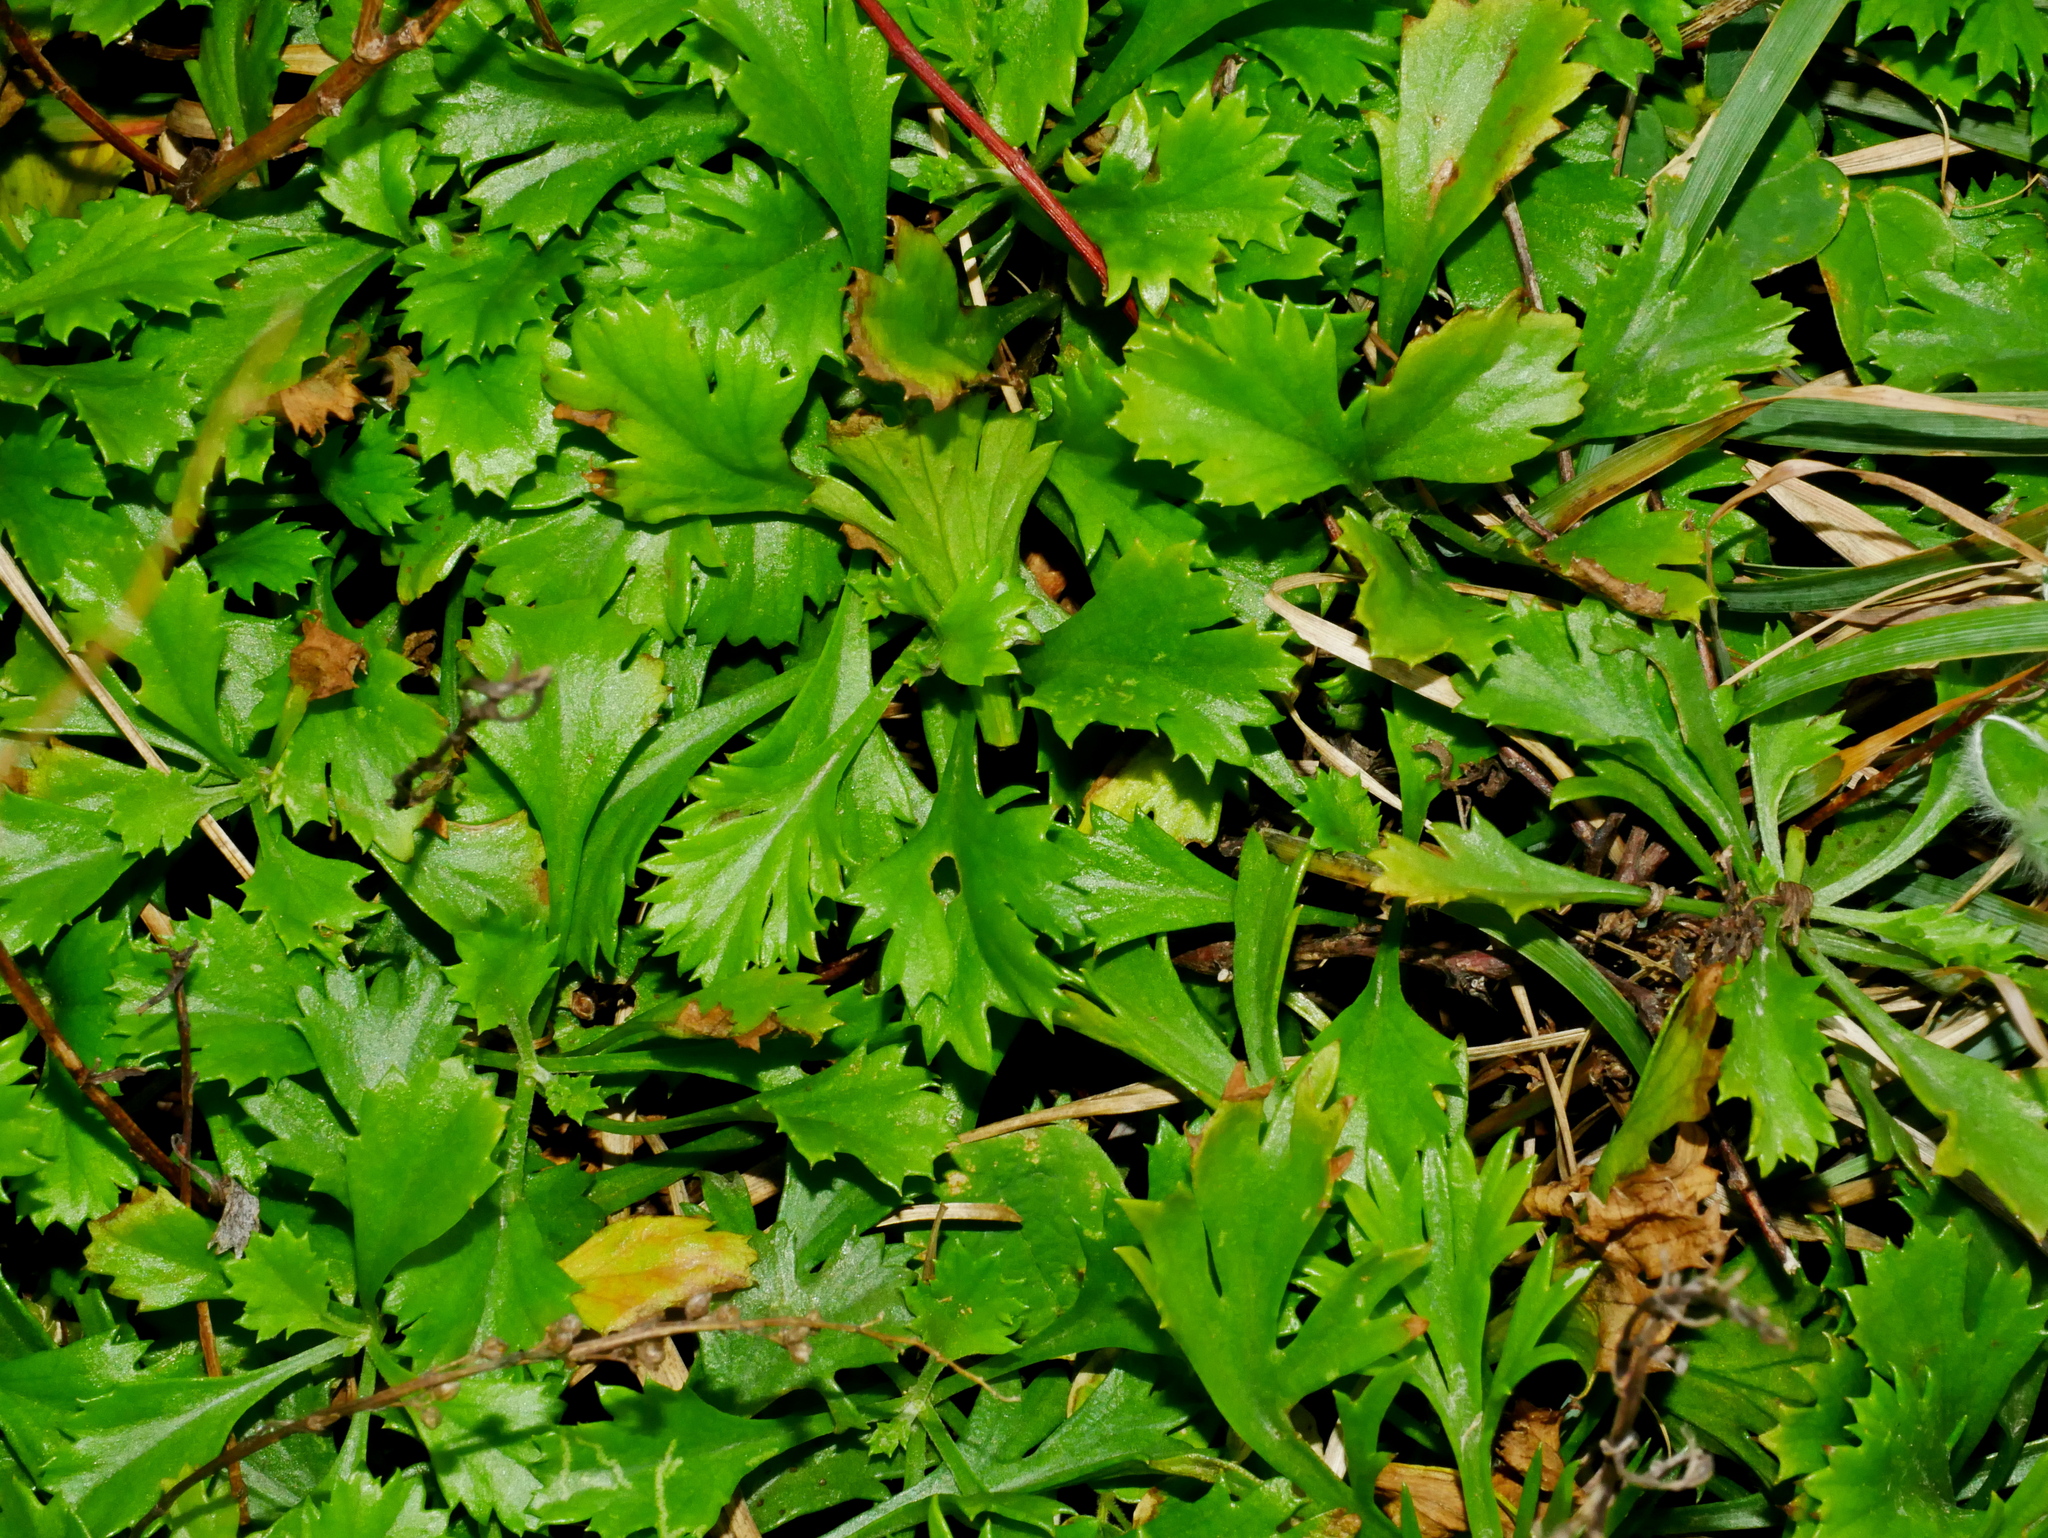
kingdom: Plantae
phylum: Tracheophyta
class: Magnoliopsida
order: Asterales
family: Asteraceae
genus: Artemisia
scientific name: Artemisia japonica
